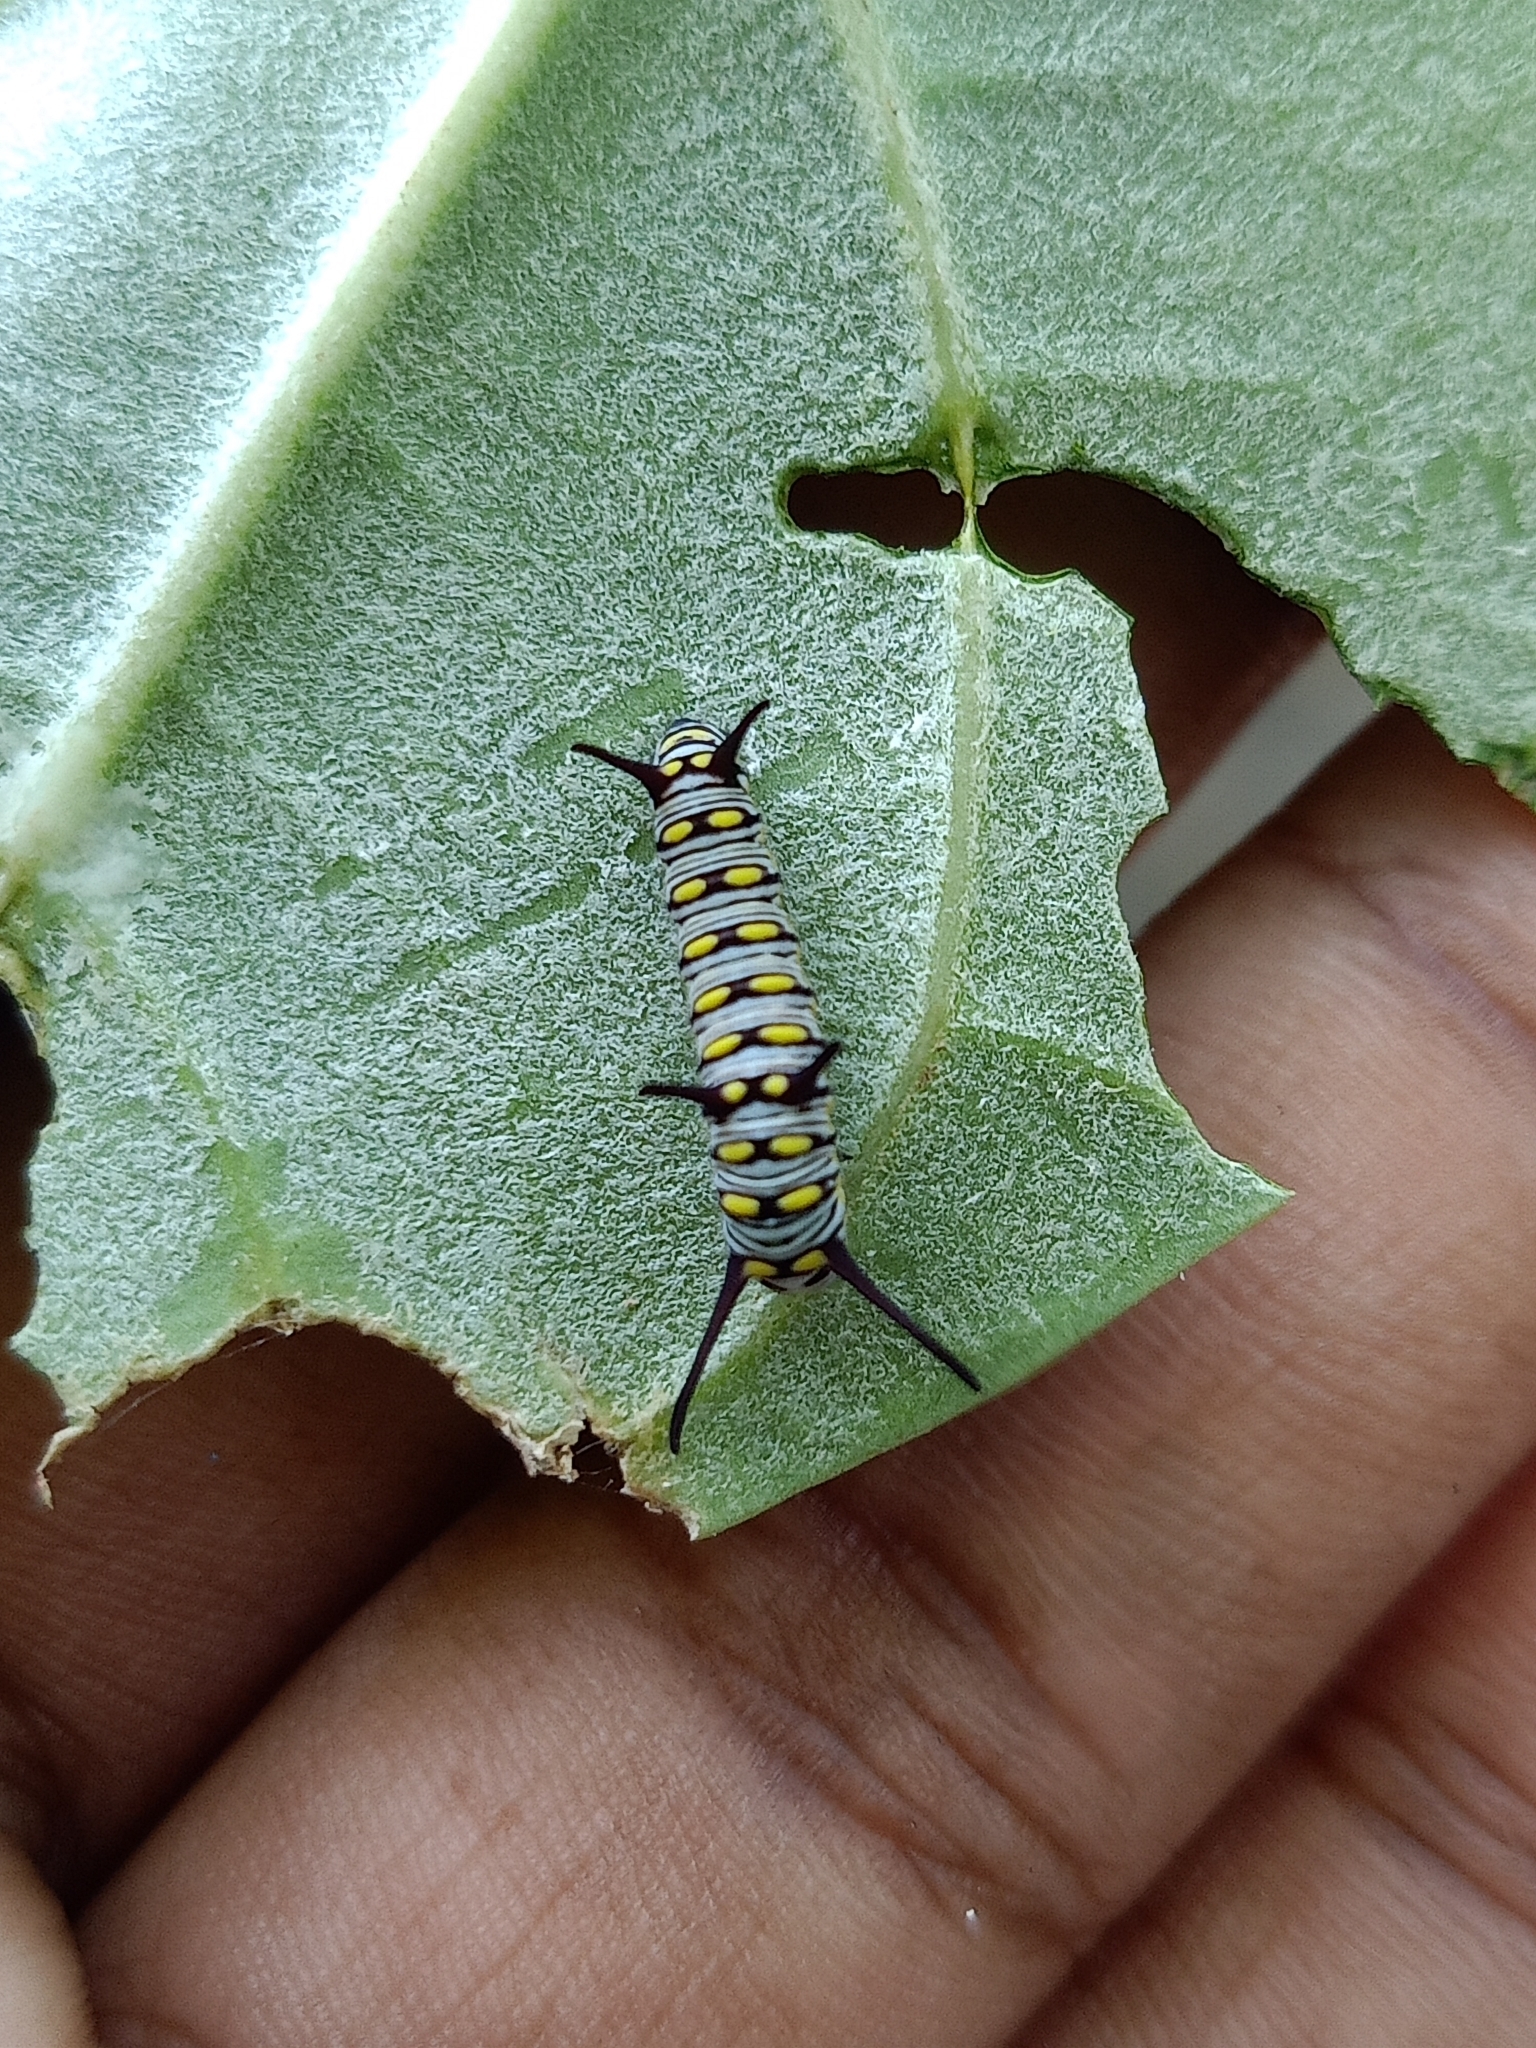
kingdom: Animalia
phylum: Arthropoda
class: Insecta
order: Lepidoptera
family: Nymphalidae
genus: Danaus
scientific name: Danaus chrysippus
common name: Plain tiger
